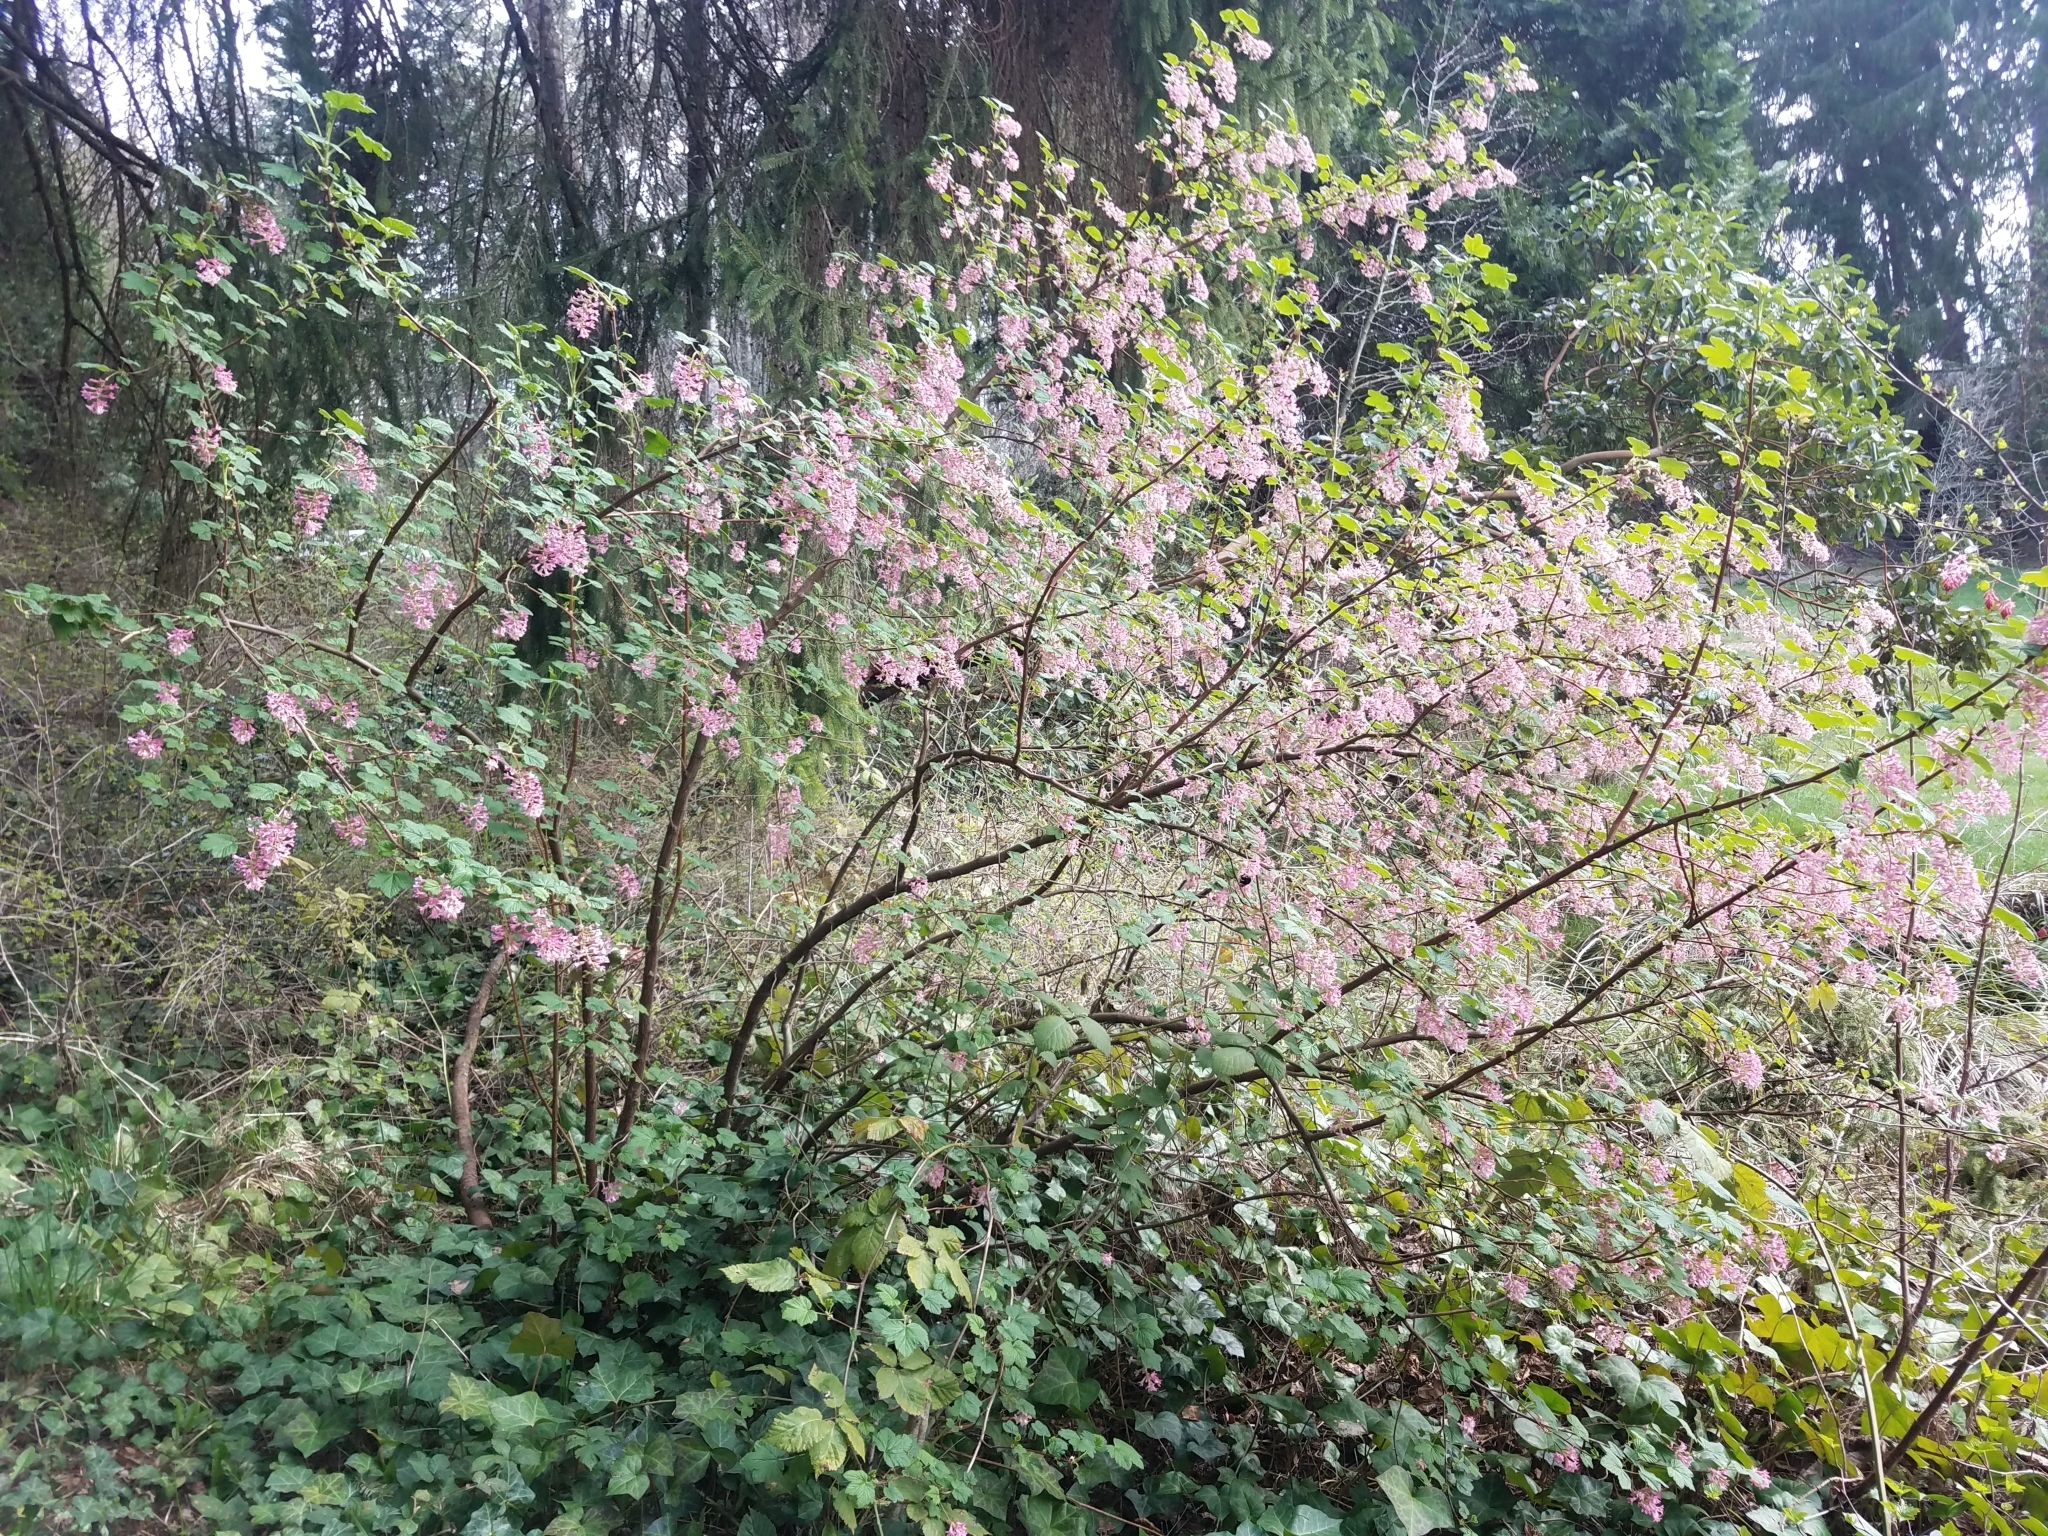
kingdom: Plantae
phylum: Tracheophyta
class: Magnoliopsida
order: Saxifragales
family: Grossulariaceae
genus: Ribes
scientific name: Ribes sanguineum
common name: Flowering currant
